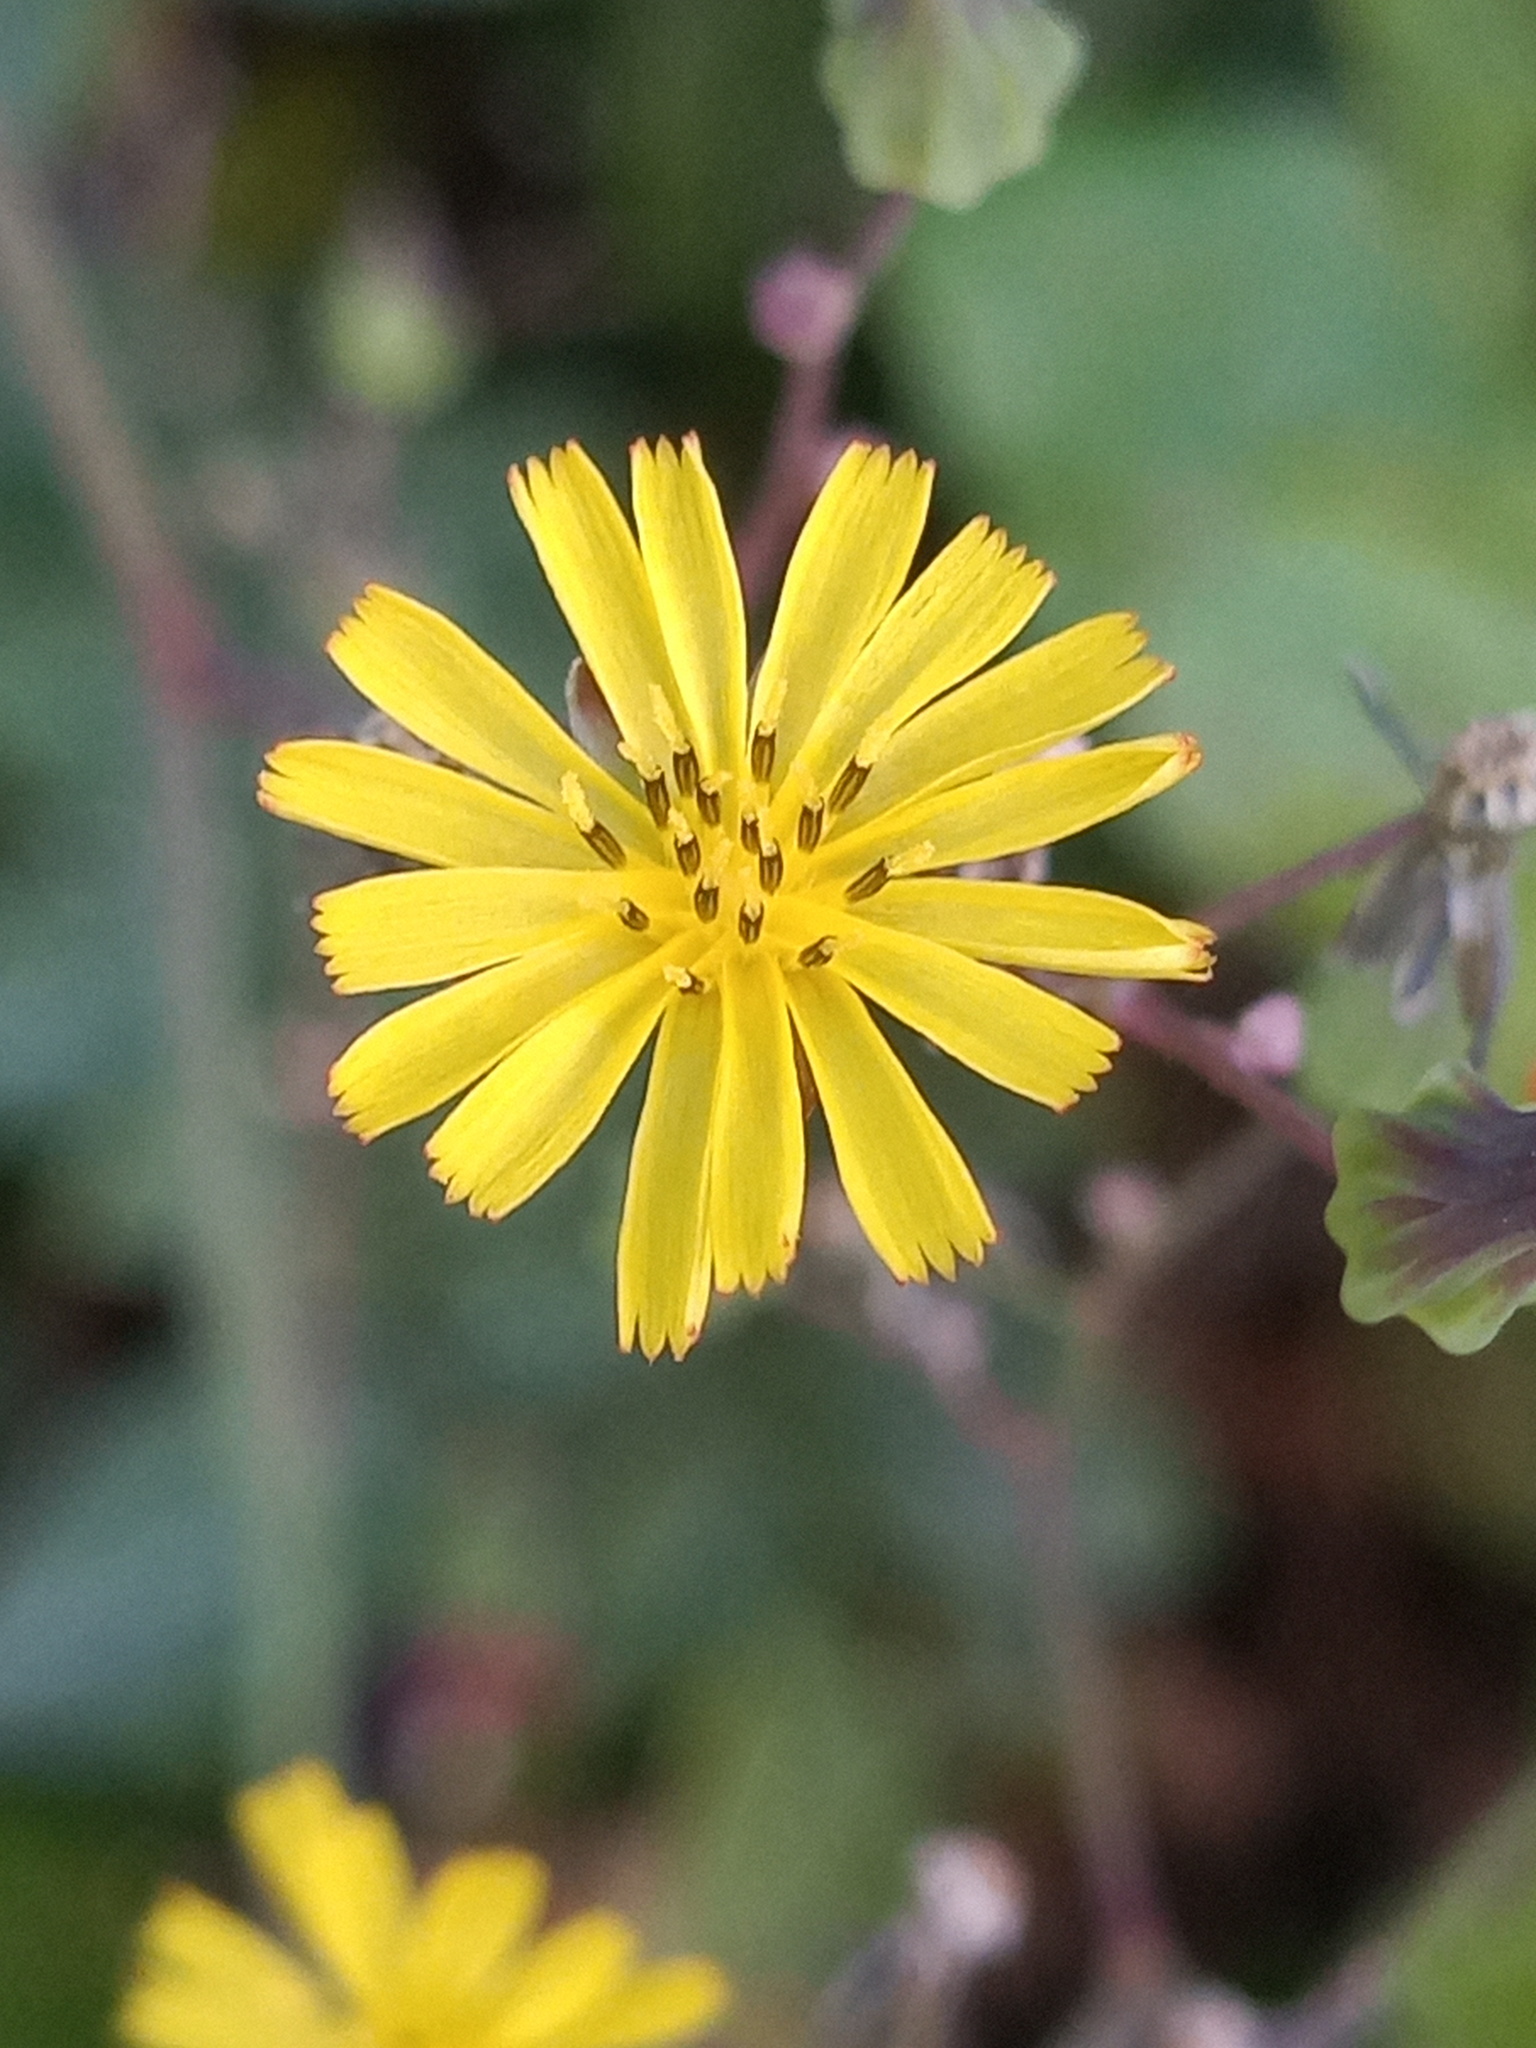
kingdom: Plantae
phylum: Tracheophyta
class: Magnoliopsida
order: Asterales
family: Asteraceae
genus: Youngia
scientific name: Youngia japonica
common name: Oriental false hawksbeard
